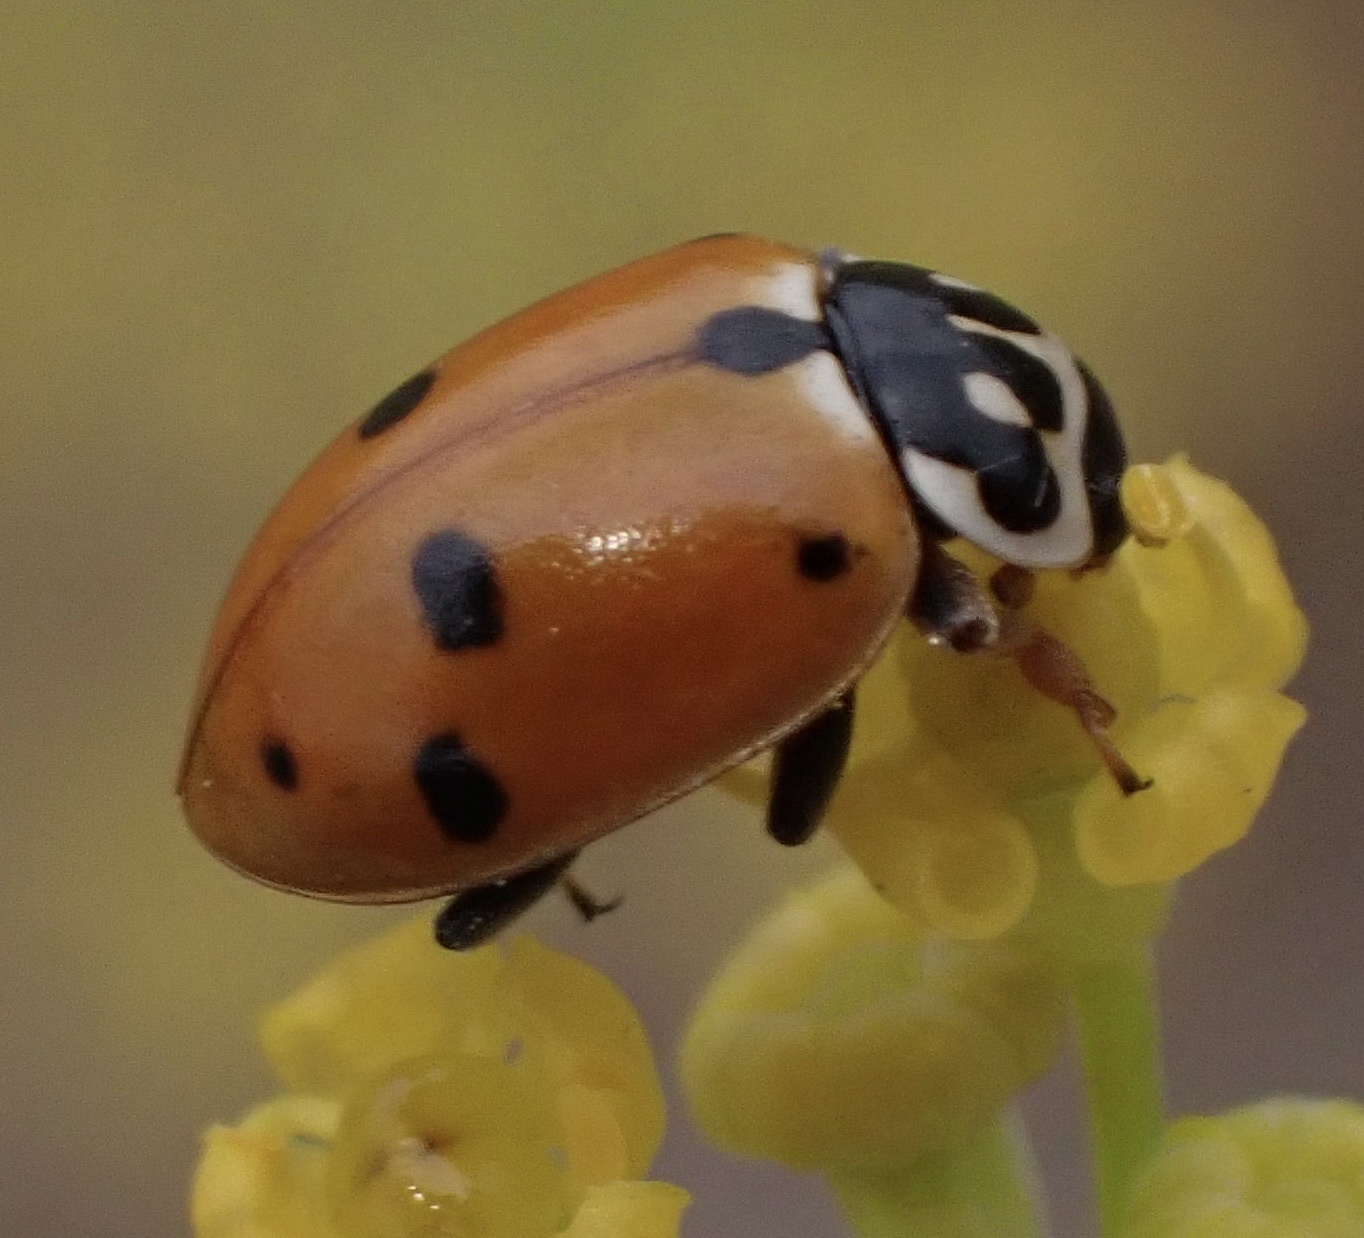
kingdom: Animalia
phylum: Arthropoda
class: Insecta
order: Coleoptera
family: Coccinellidae
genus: Hippodamia
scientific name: Hippodamia variegata
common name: Ladybird beetle
